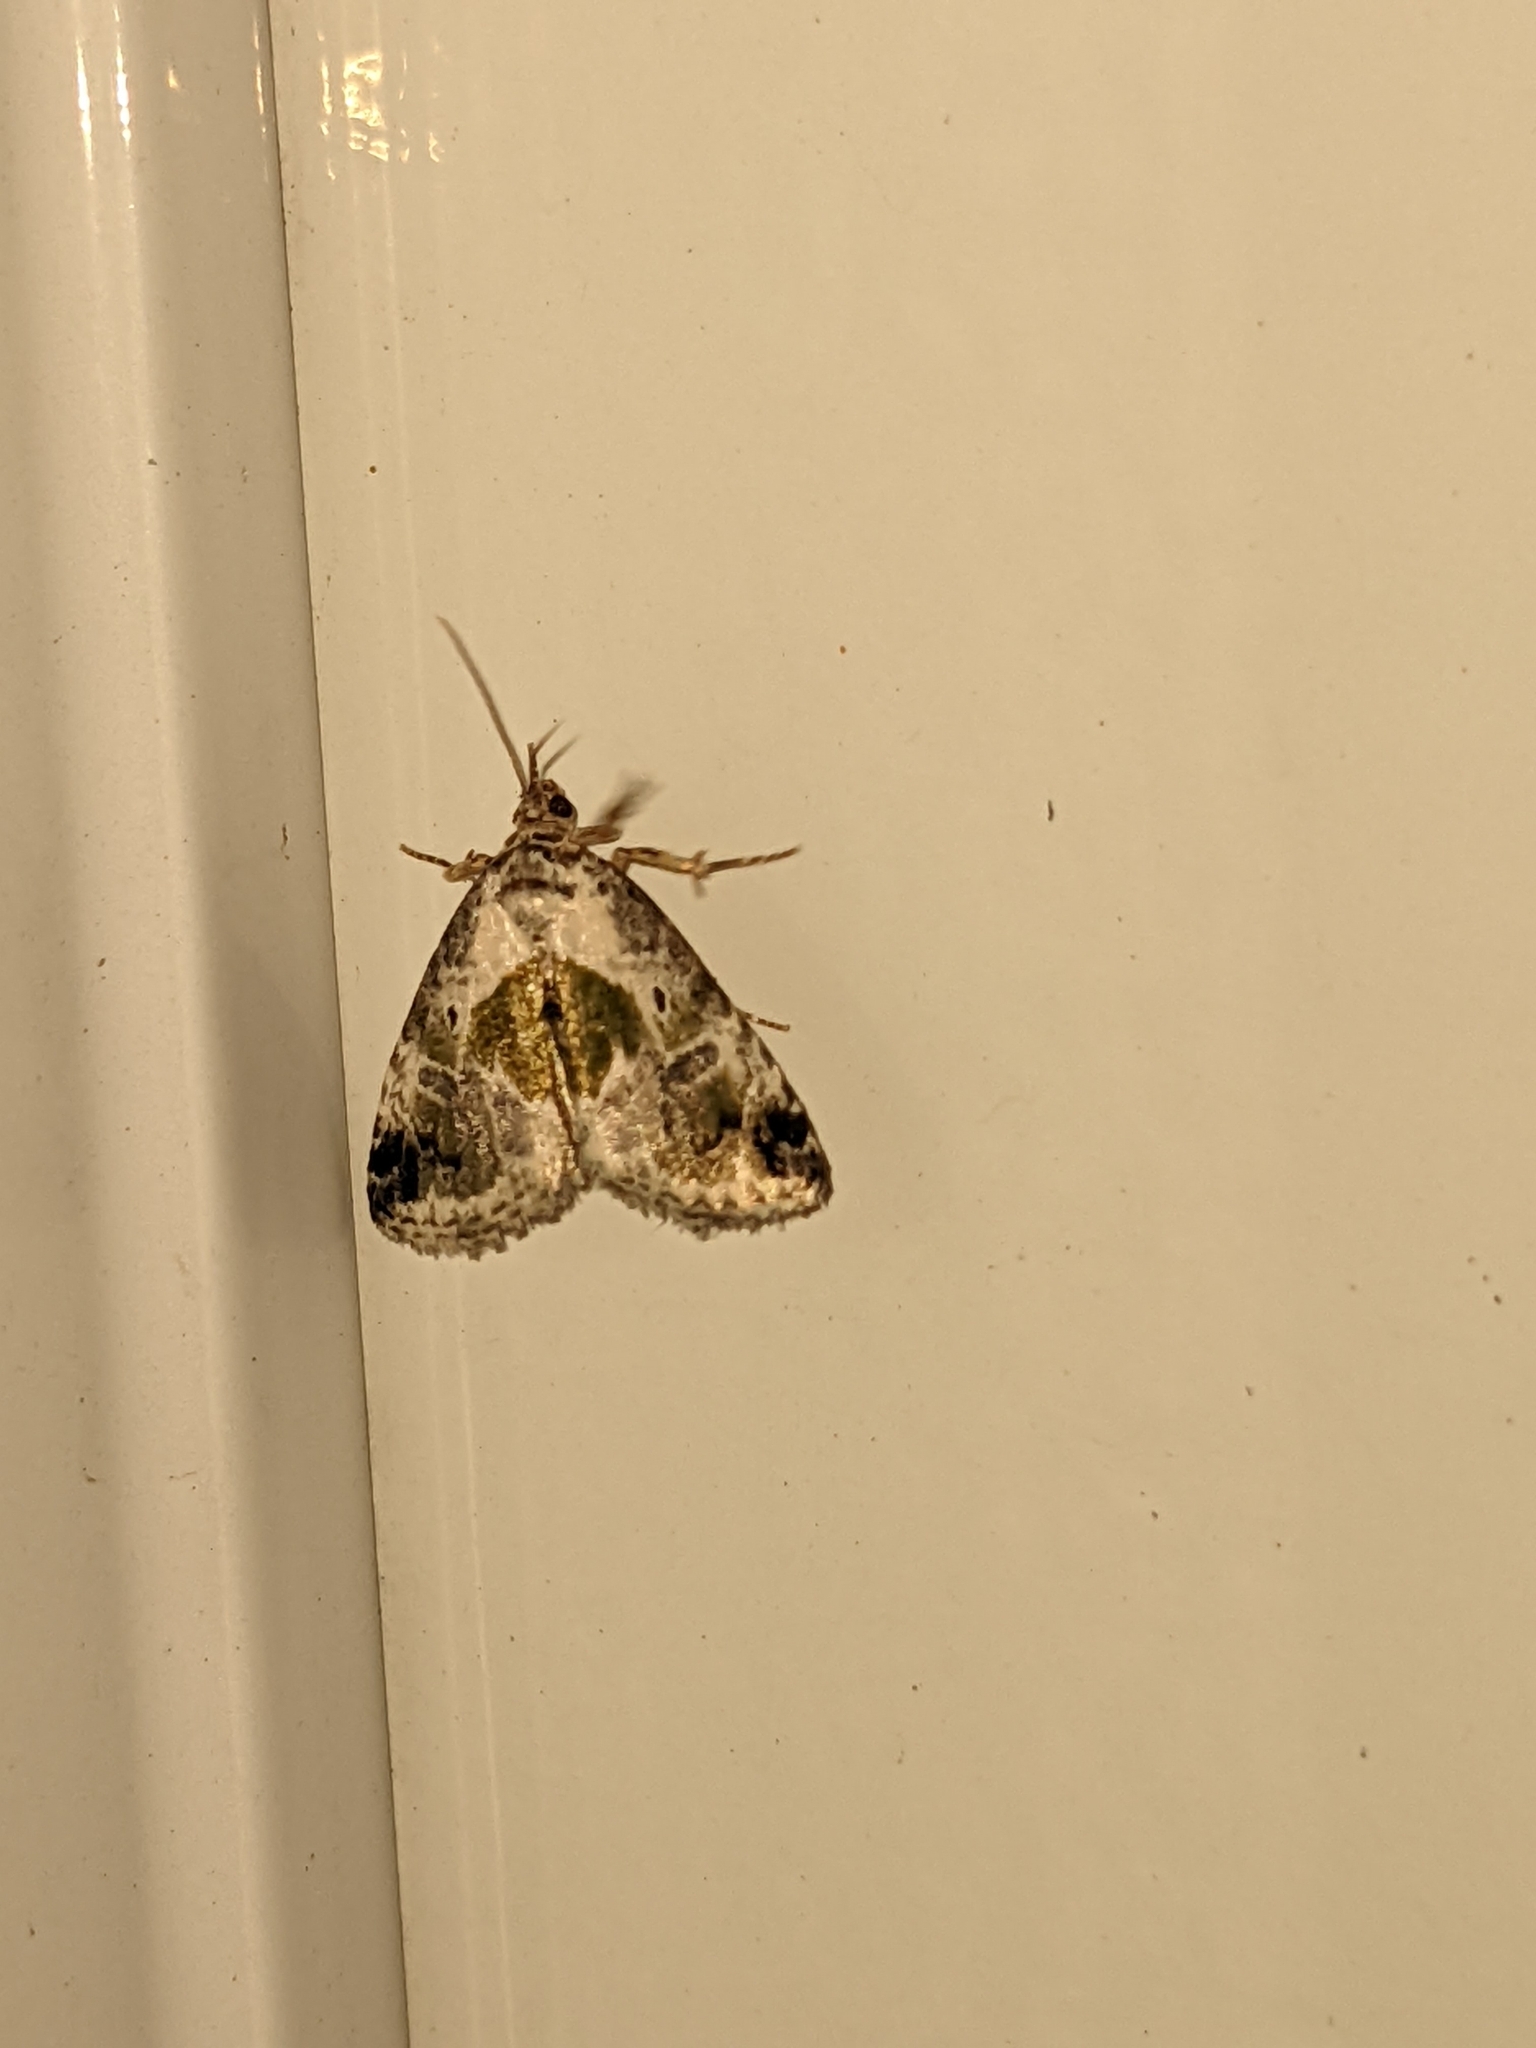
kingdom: Animalia
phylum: Arthropoda
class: Insecta
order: Lepidoptera
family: Noctuidae
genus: Maliattha
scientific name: Maliattha synochitis
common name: Black-dotted glyph
